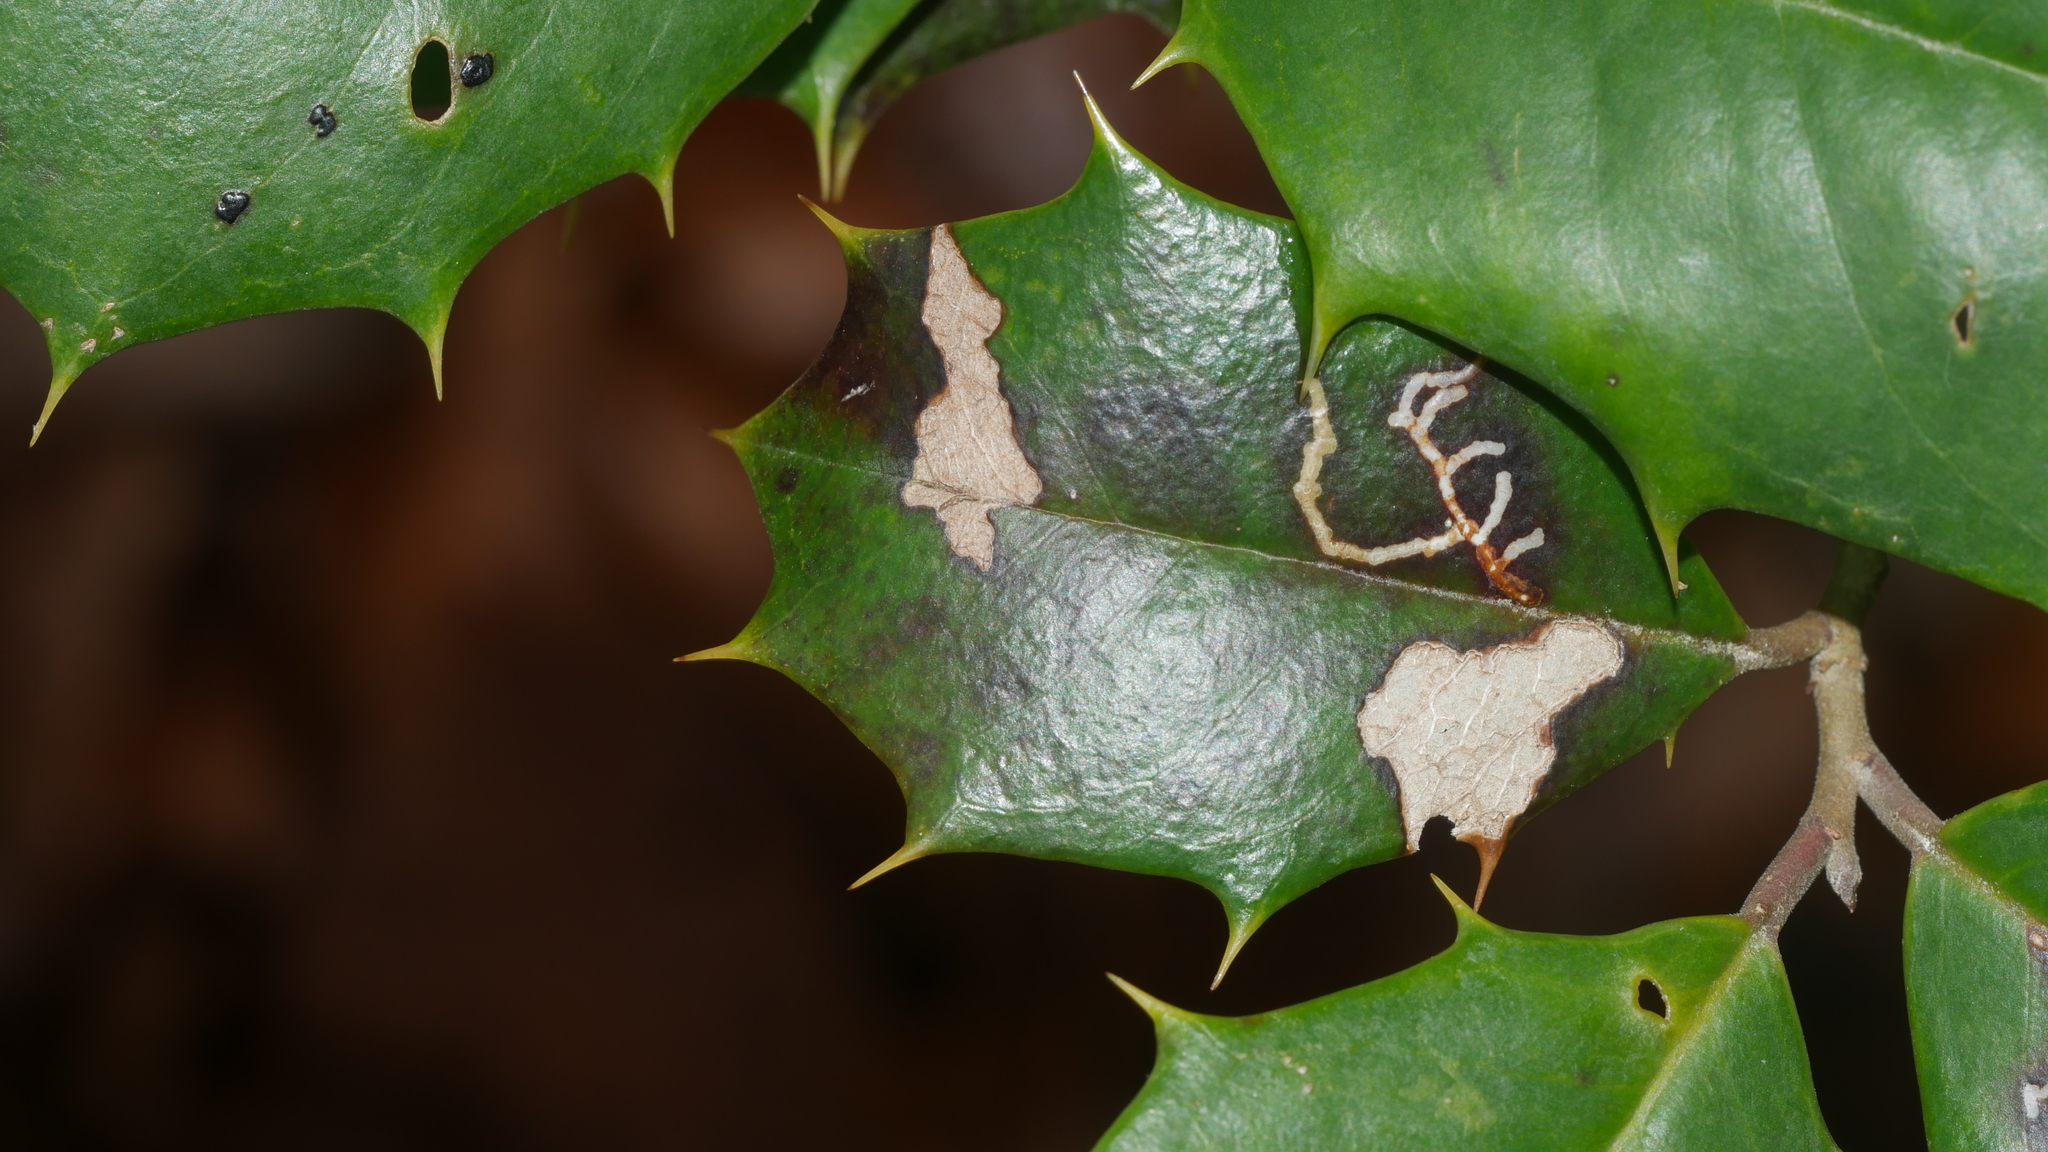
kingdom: Animalia
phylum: Arthropoda
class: Insecta
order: Lepidoptera
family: Tortricidae
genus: Rhopobota
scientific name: Rhopobota
